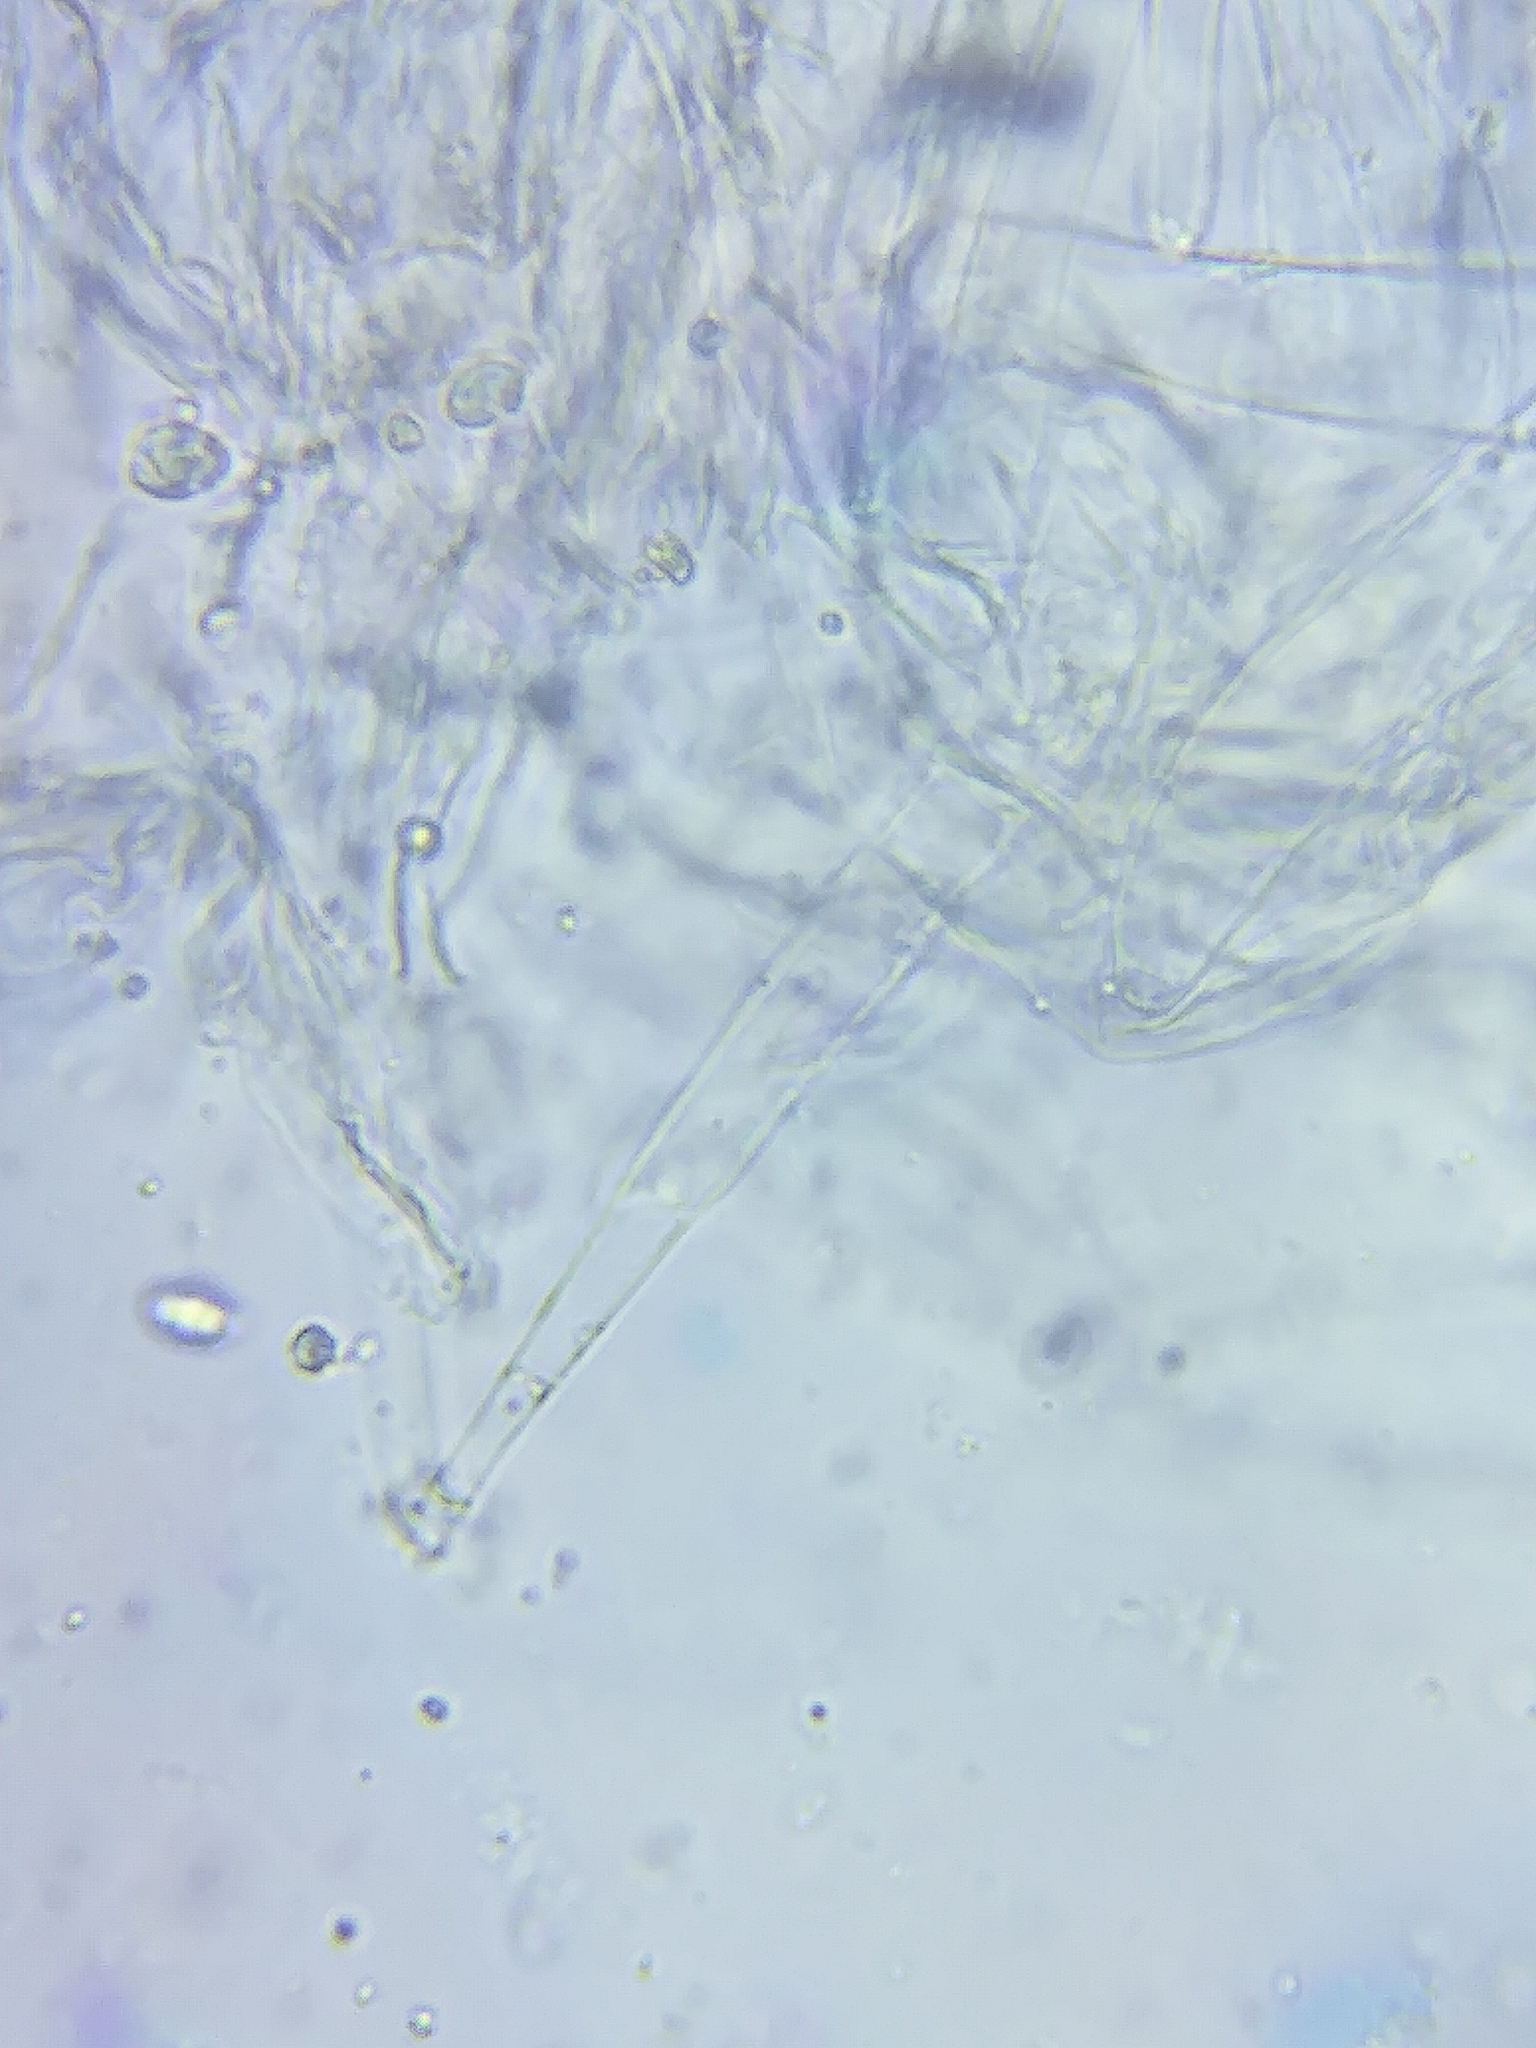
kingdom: Fungi
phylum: Basidiomycota
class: Agaricomycetes
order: Agaricales
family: Hygrophoraceae
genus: Humidicutis
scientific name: Humidicutis auratocephala
